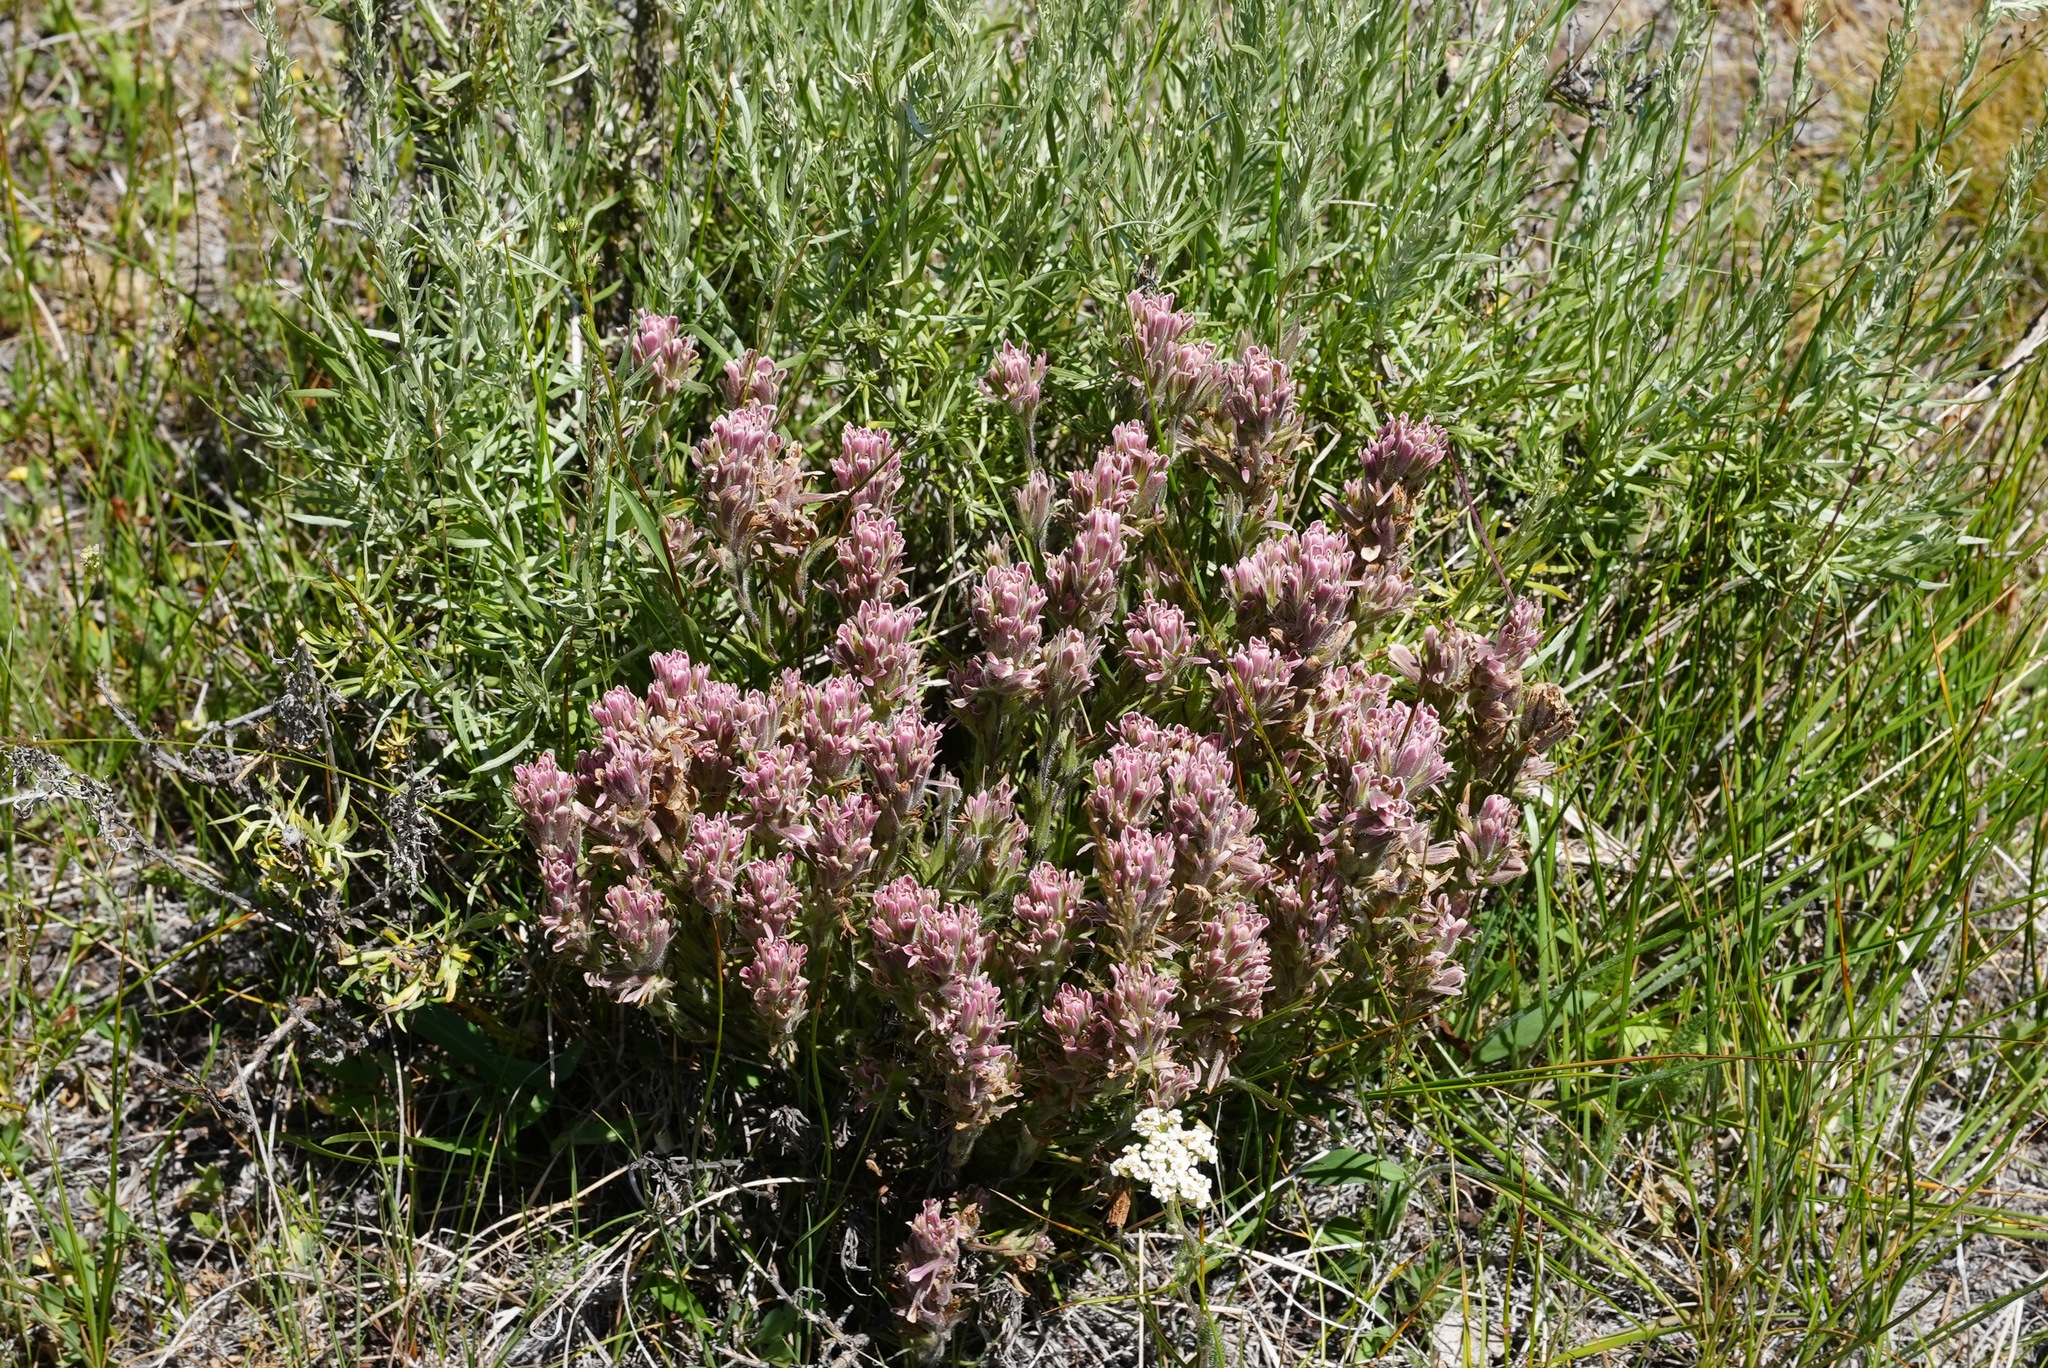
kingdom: Plantae
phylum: Tracheophyta
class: Magnoliopsida
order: Lamiales
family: Orobanchaceae
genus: Castilleja
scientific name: Castilleja pilosa
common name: Hairy paintbrush
